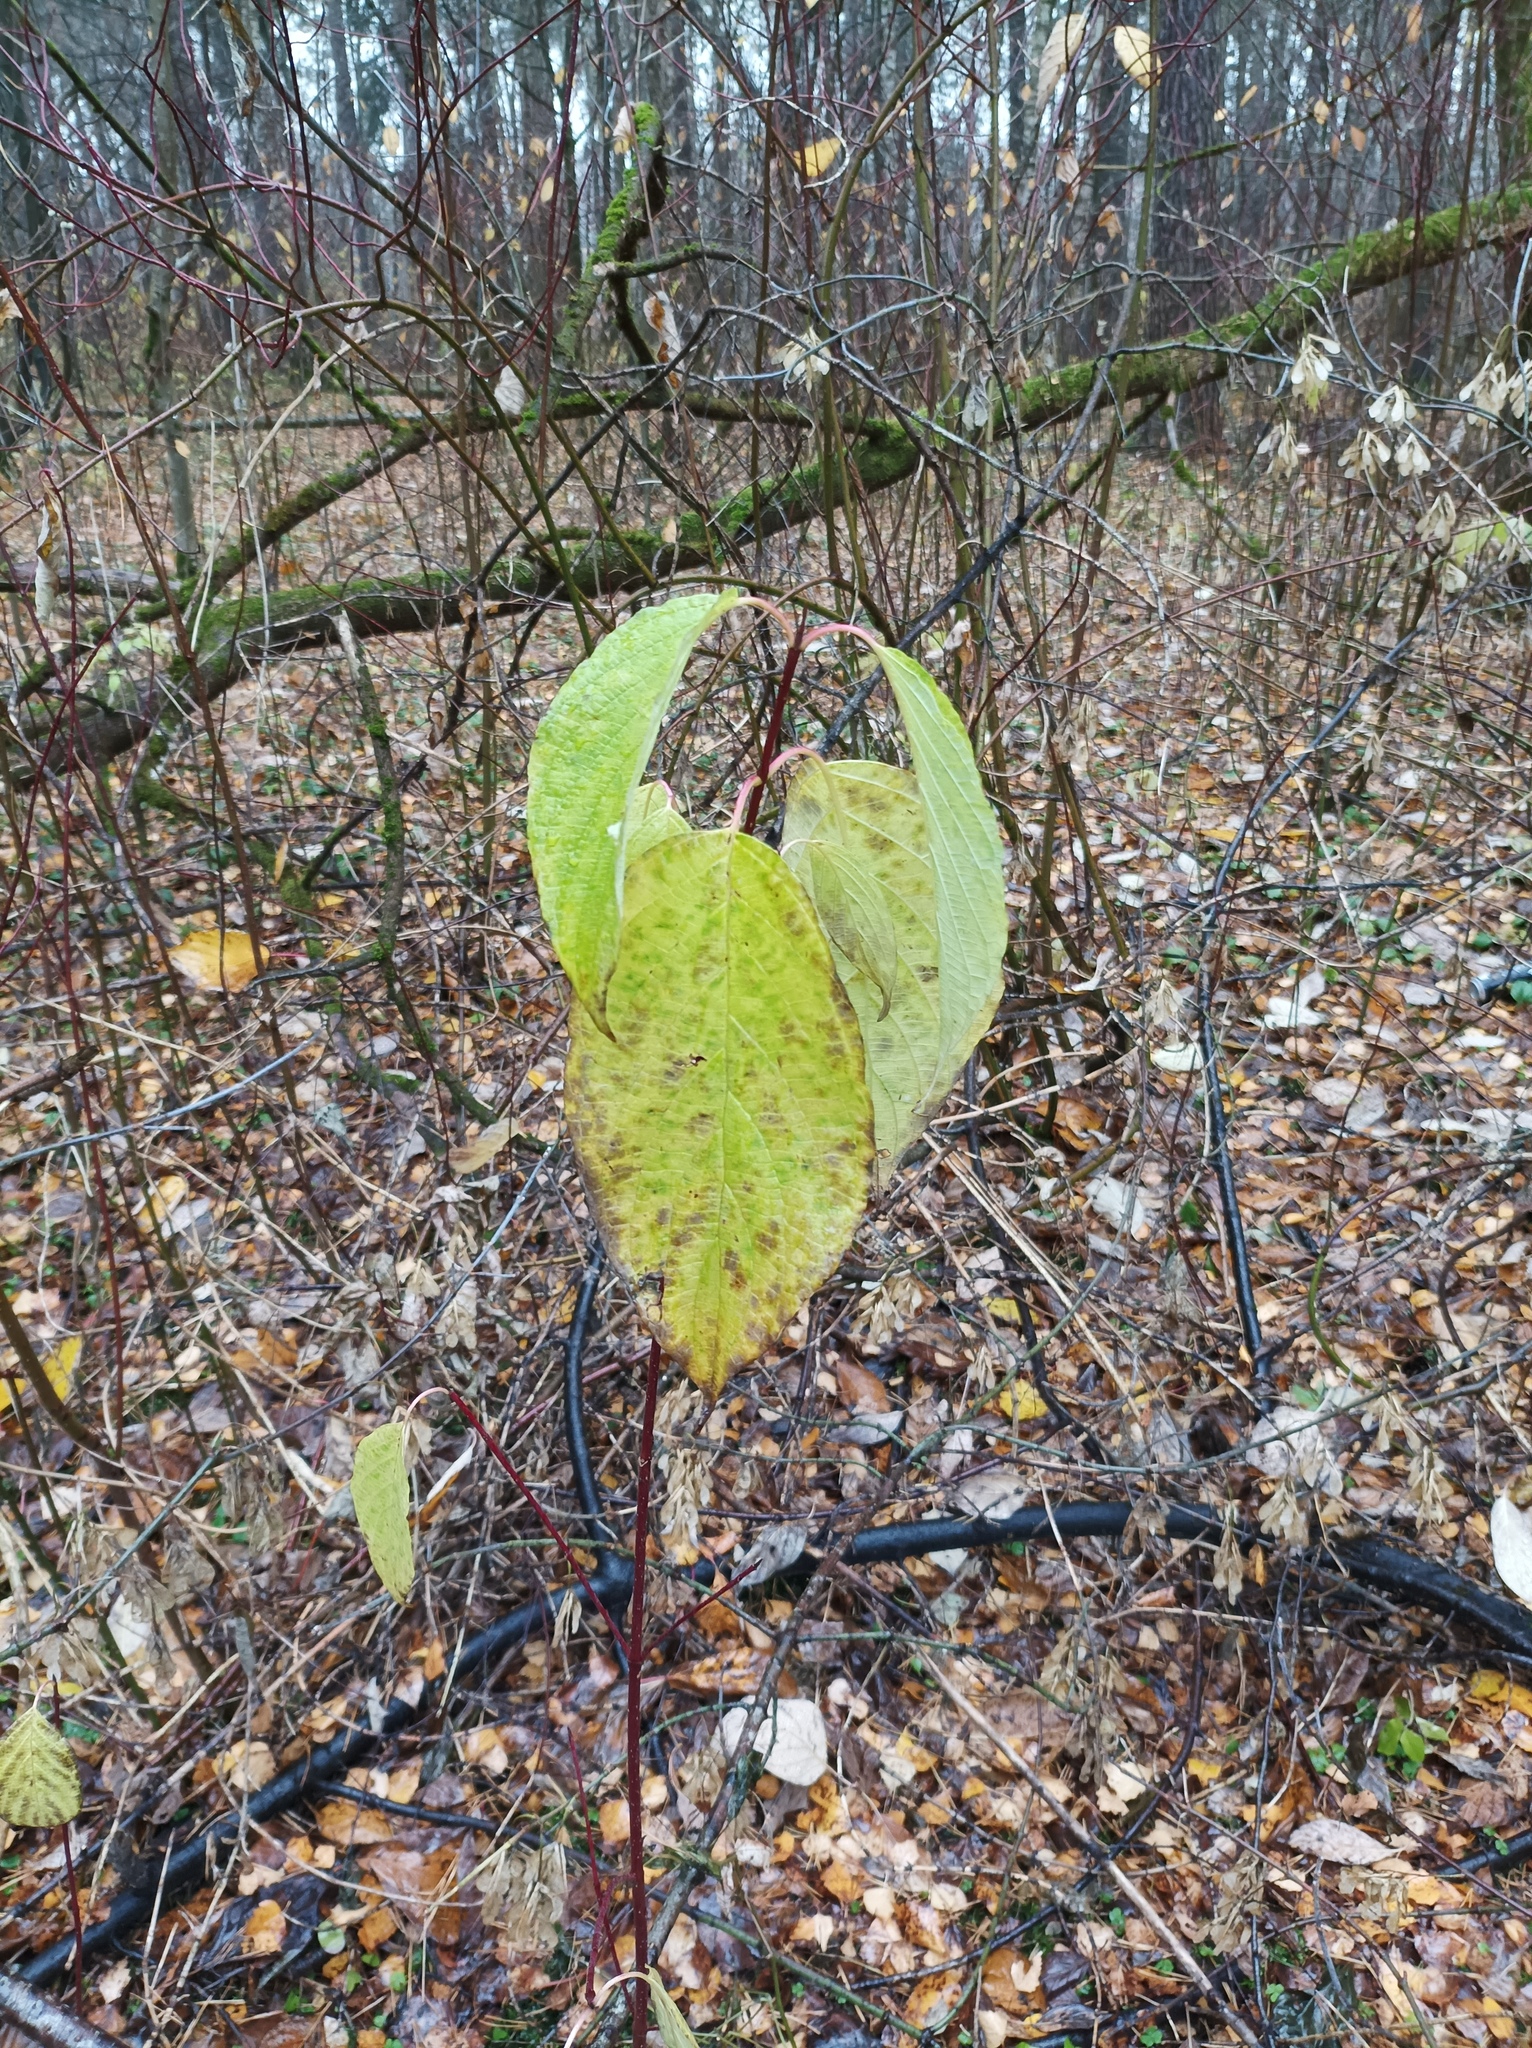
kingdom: Plantae
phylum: Tracheophyta
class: Magnoliopsida
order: Cornales
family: Cornaceae
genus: Cornus
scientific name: Cornus sericea
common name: Red-osier dogwood
